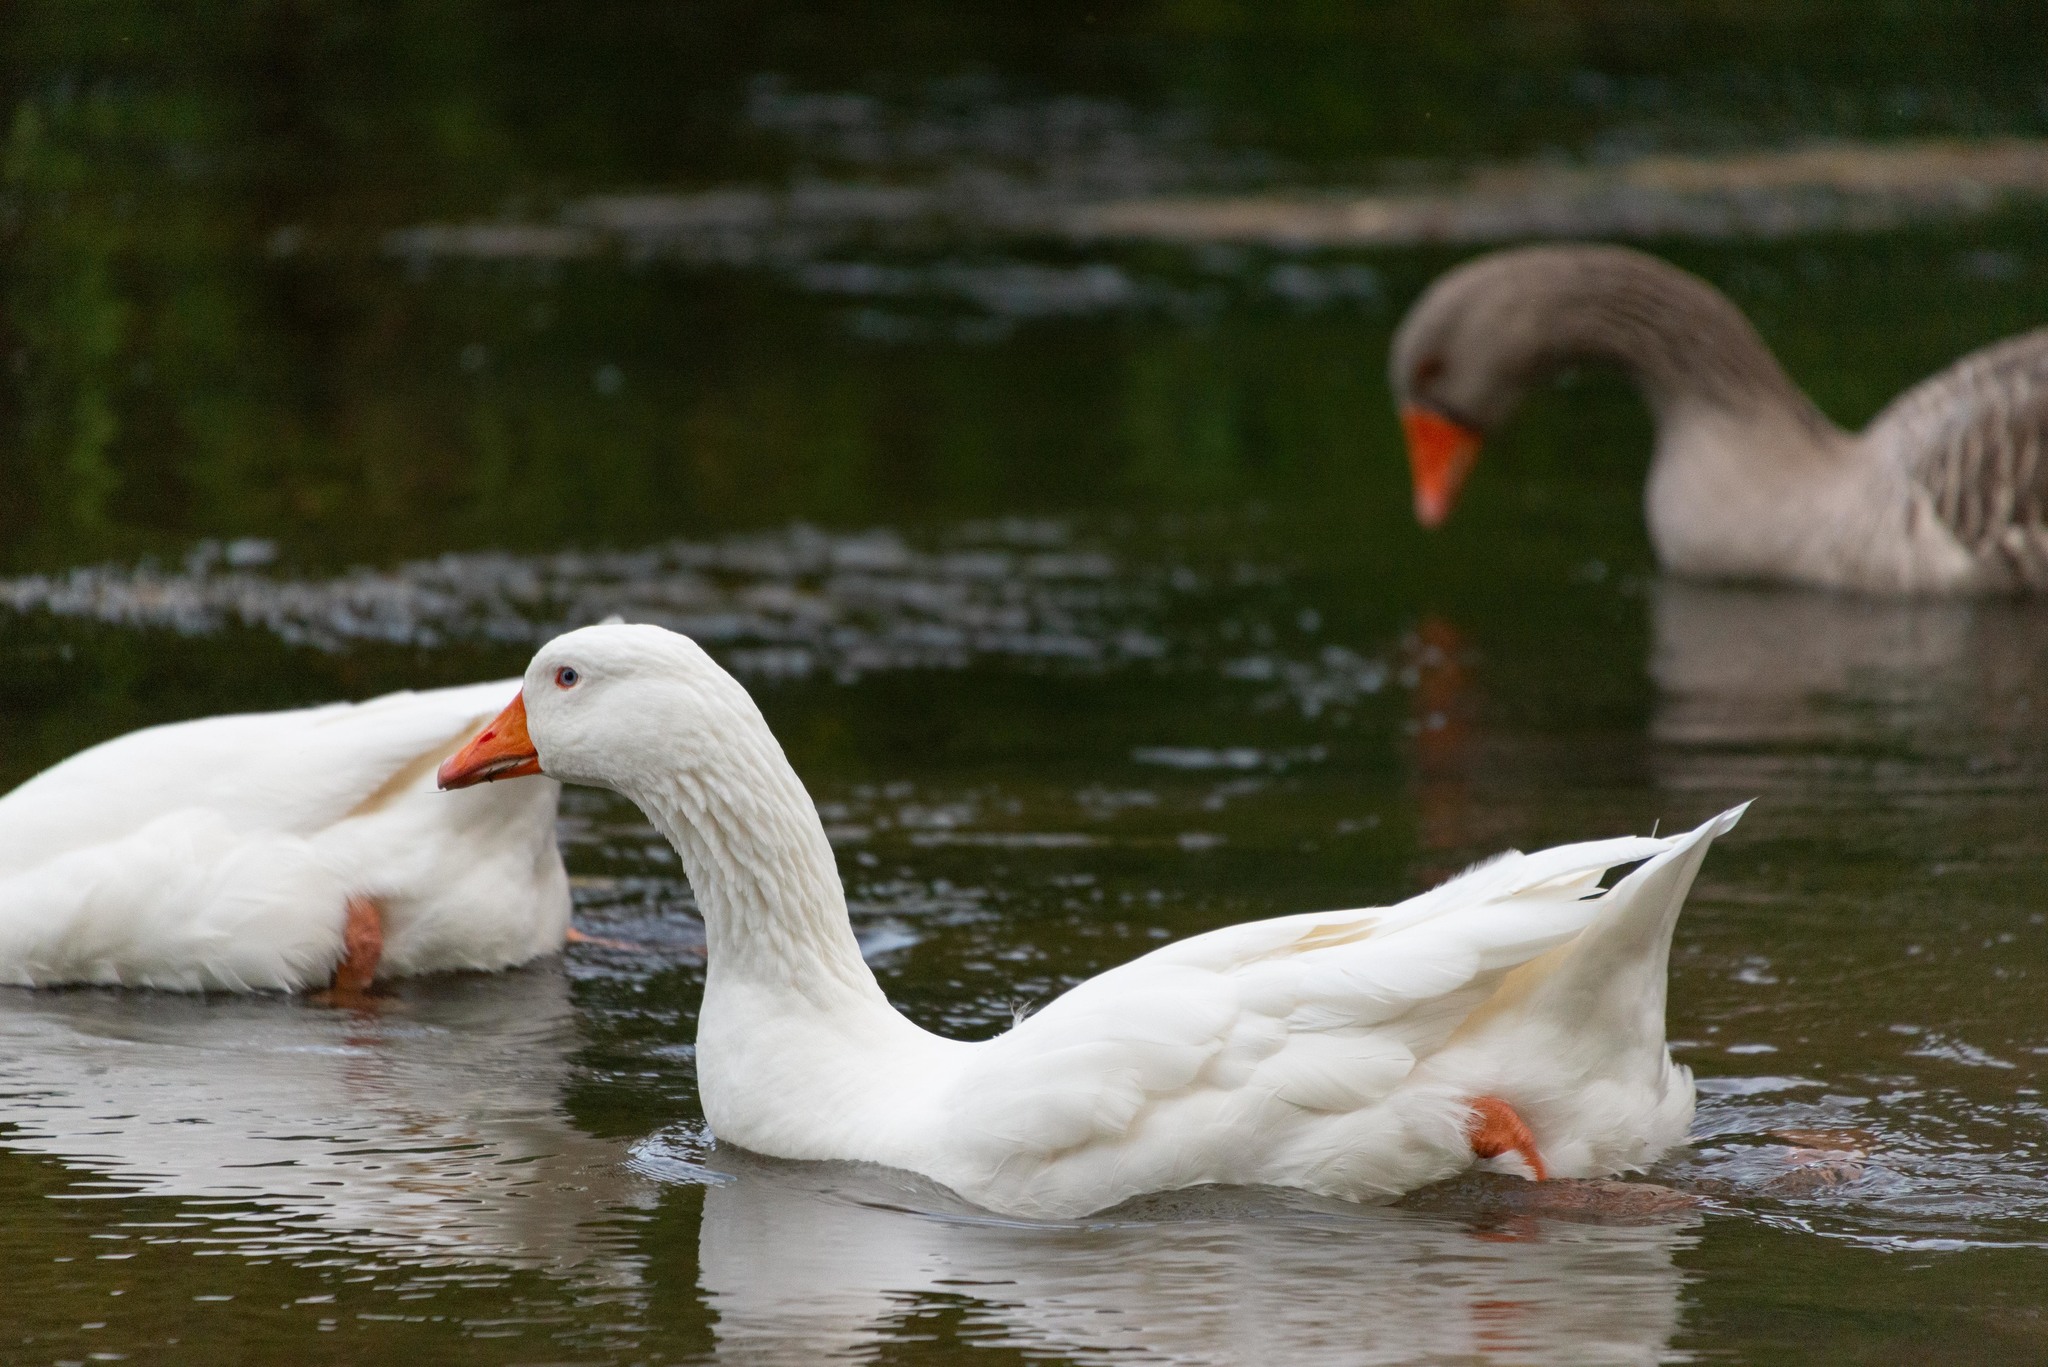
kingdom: Animalia
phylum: Chordata
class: Aves
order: Anseriformes
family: Anatidae
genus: Anser
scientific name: Anser anser
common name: Greylag goose
